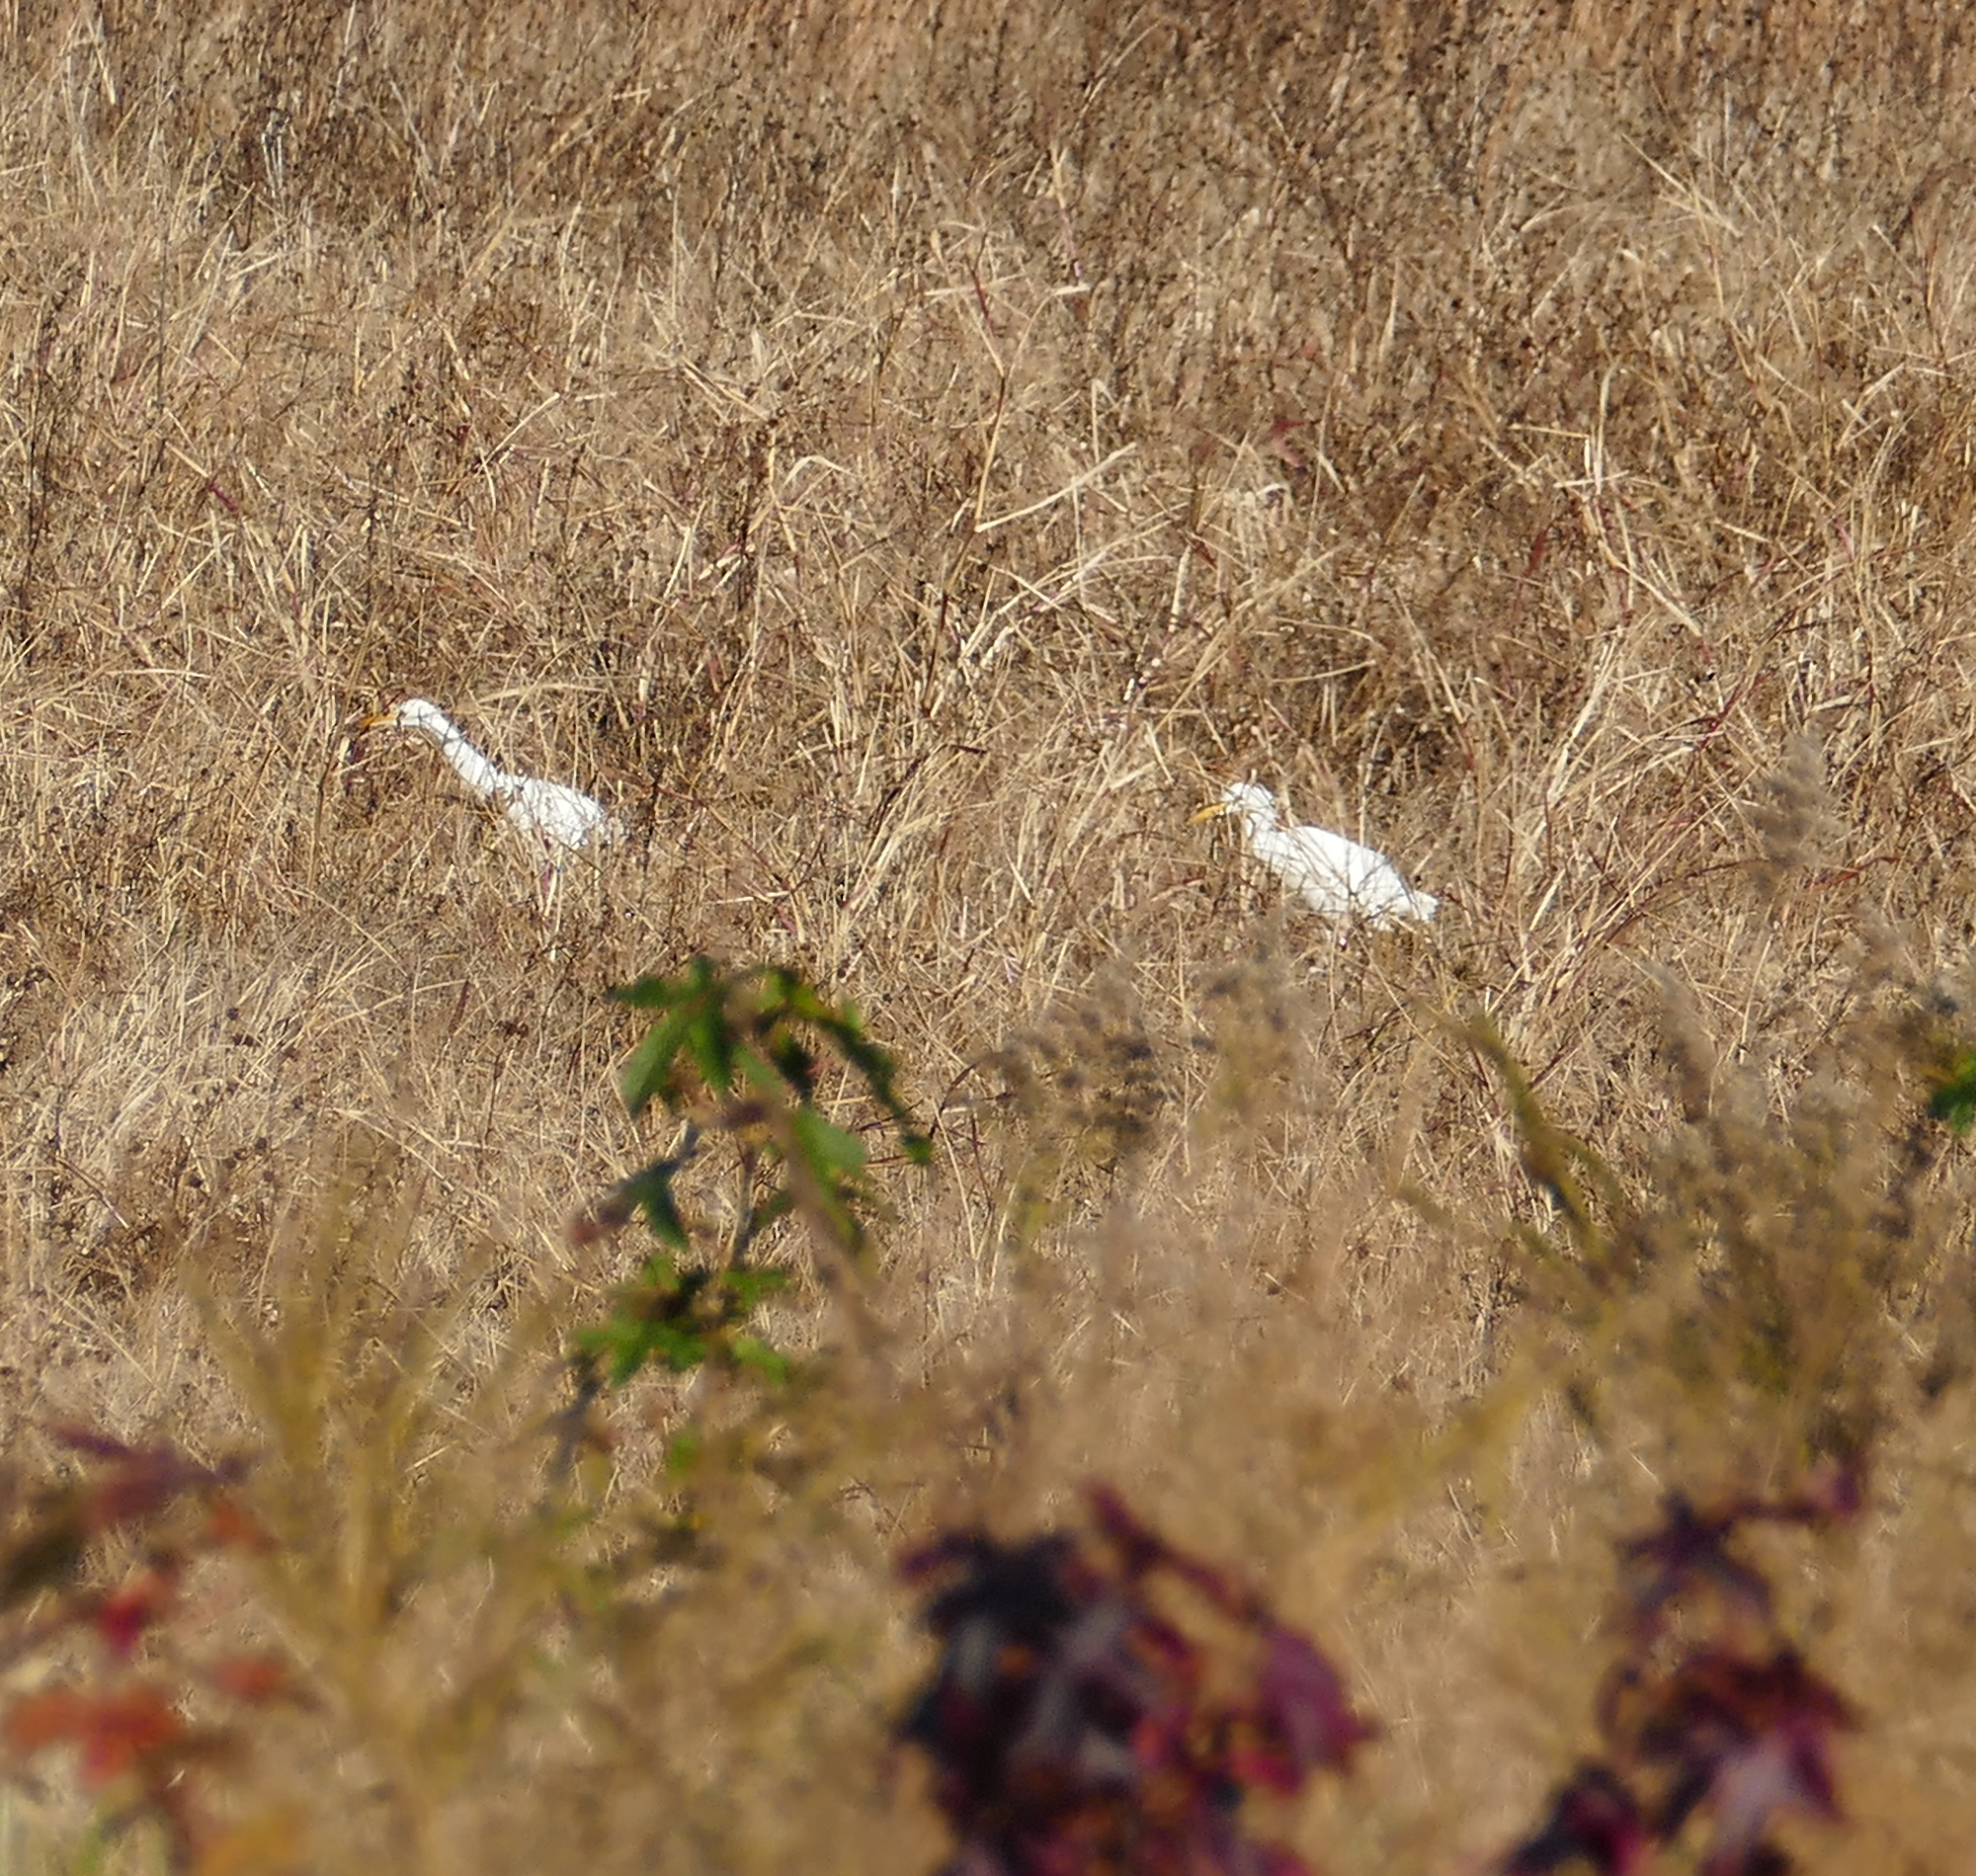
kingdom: Animalia
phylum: Chordata
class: Aves
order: Pelecaniformes
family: Ardeidae
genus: Bubulcus
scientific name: Bubulcus ibis
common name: Cattle egret
